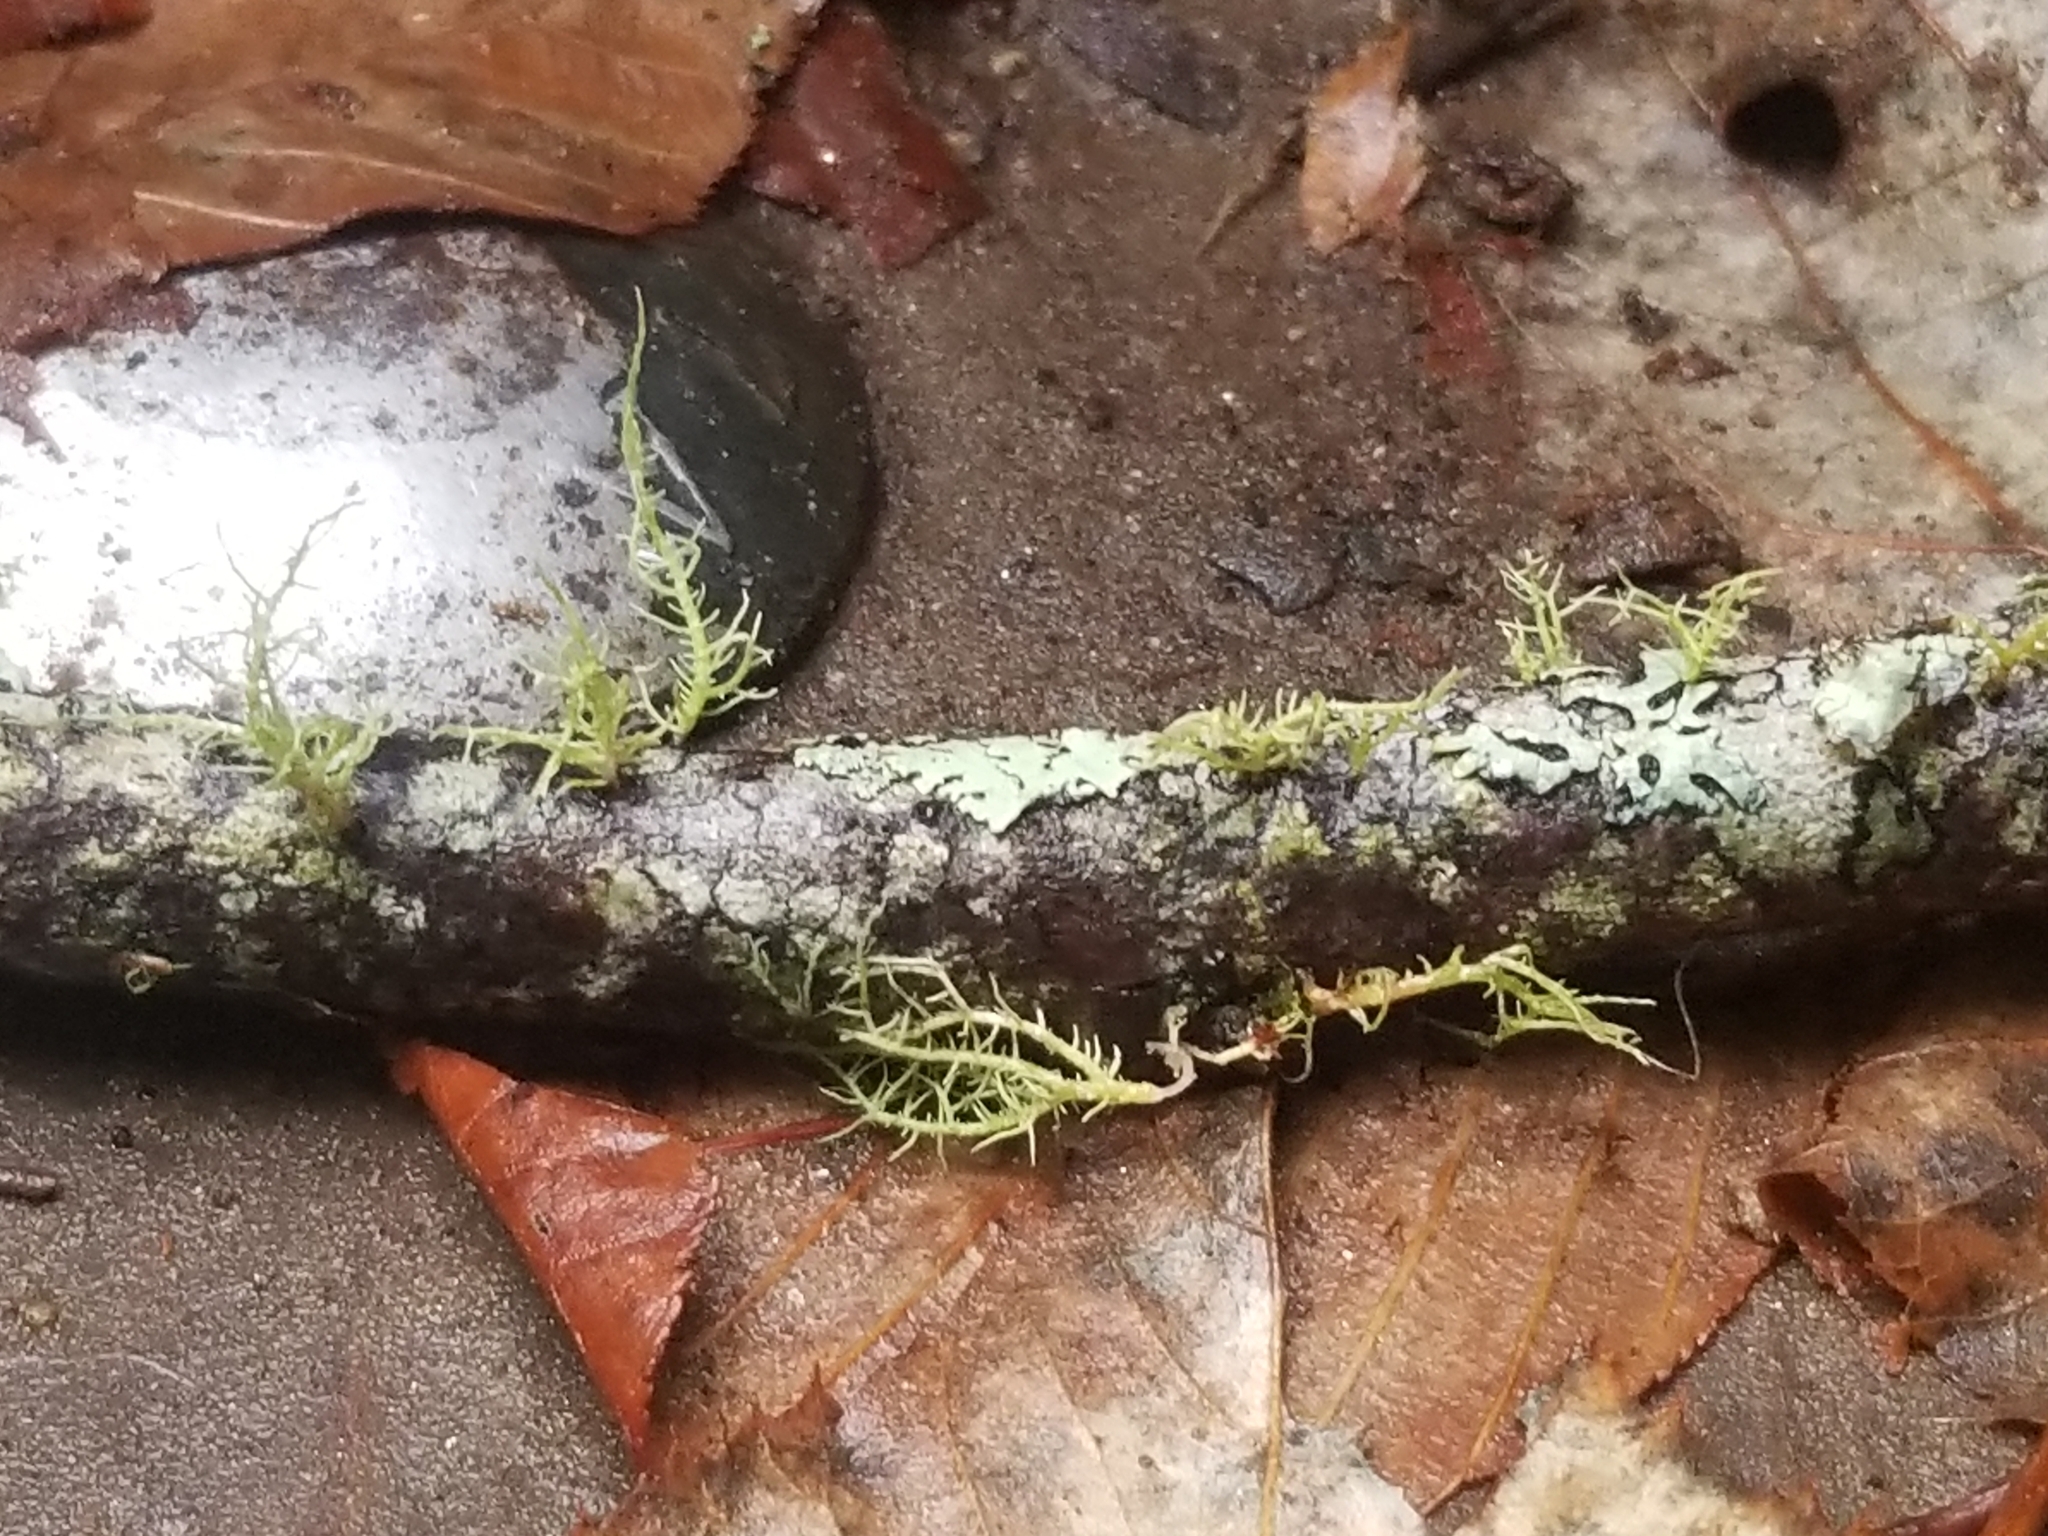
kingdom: Fungi
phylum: Ascomycota
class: Lecanoromycetes
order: Lecanorales
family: Parmeliaceae
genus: Usnea
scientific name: Usnea strigosa
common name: Bushy beard lichen
